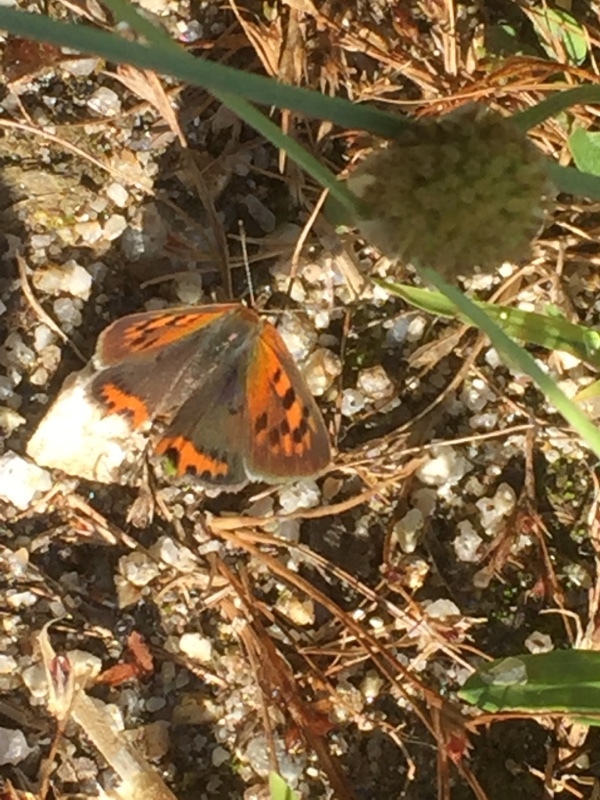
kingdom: Animalia
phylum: Arthropoda
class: Insecta
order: Lepidoptera
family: Lycaenidae
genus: Lycaena
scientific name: Lycaena phlaeas
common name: Small copper
